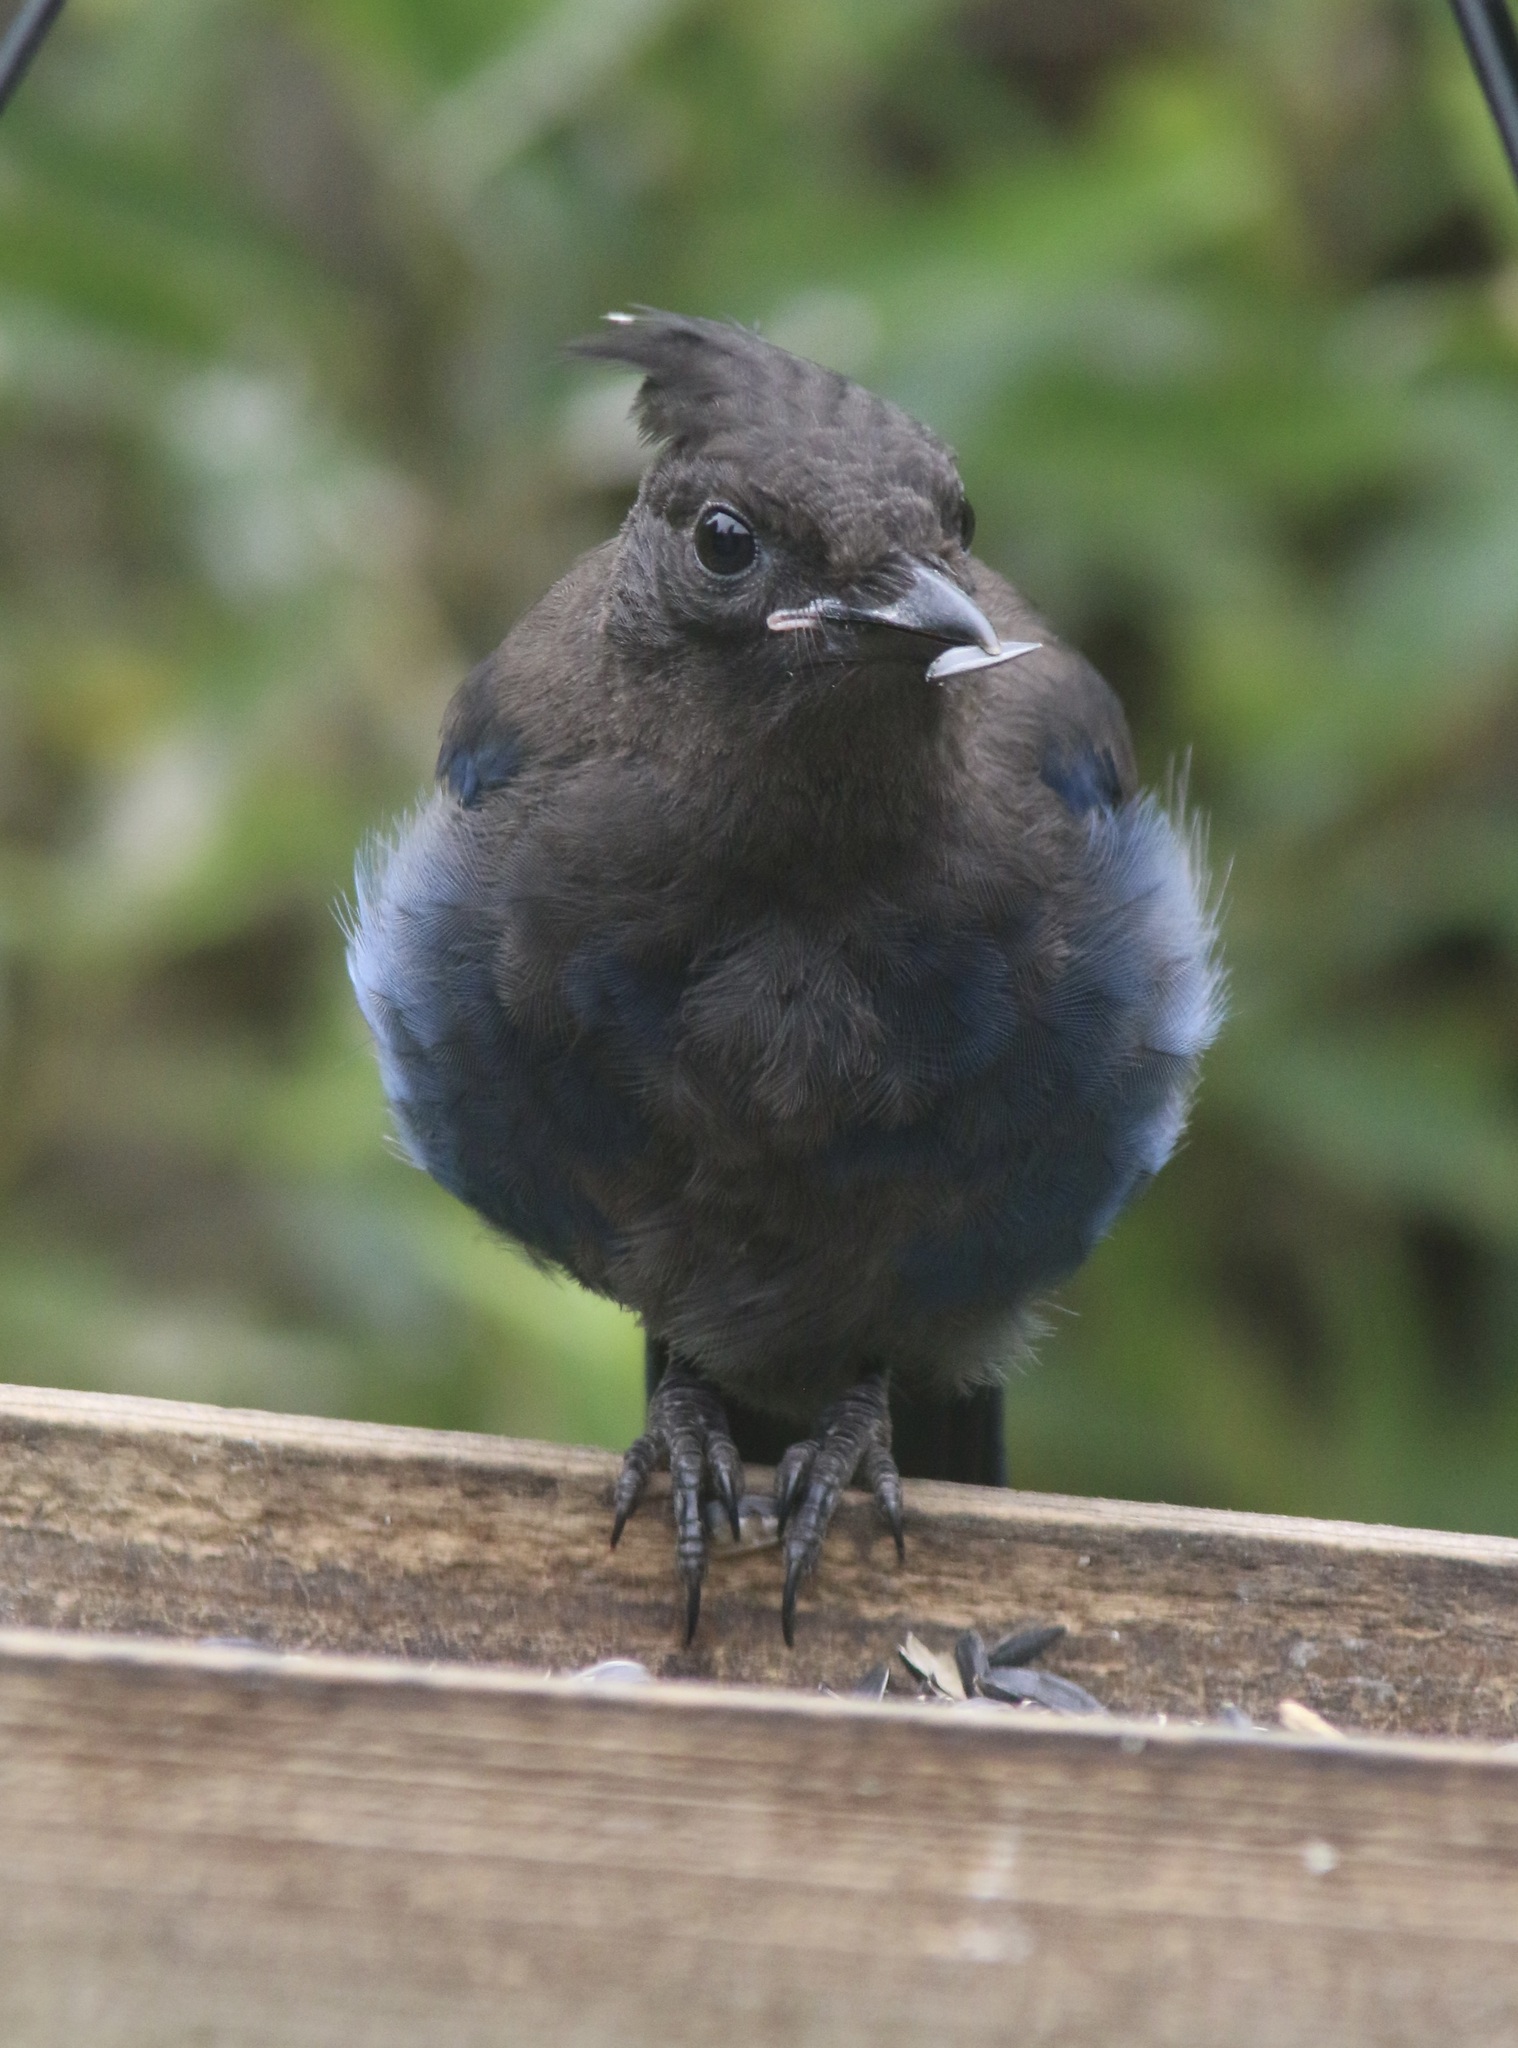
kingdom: Animalia
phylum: Chordata
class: Aves
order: Passeriformes
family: Corvidae
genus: Cyanocitta
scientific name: Cyanocitta stelleri
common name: Steller's jay
